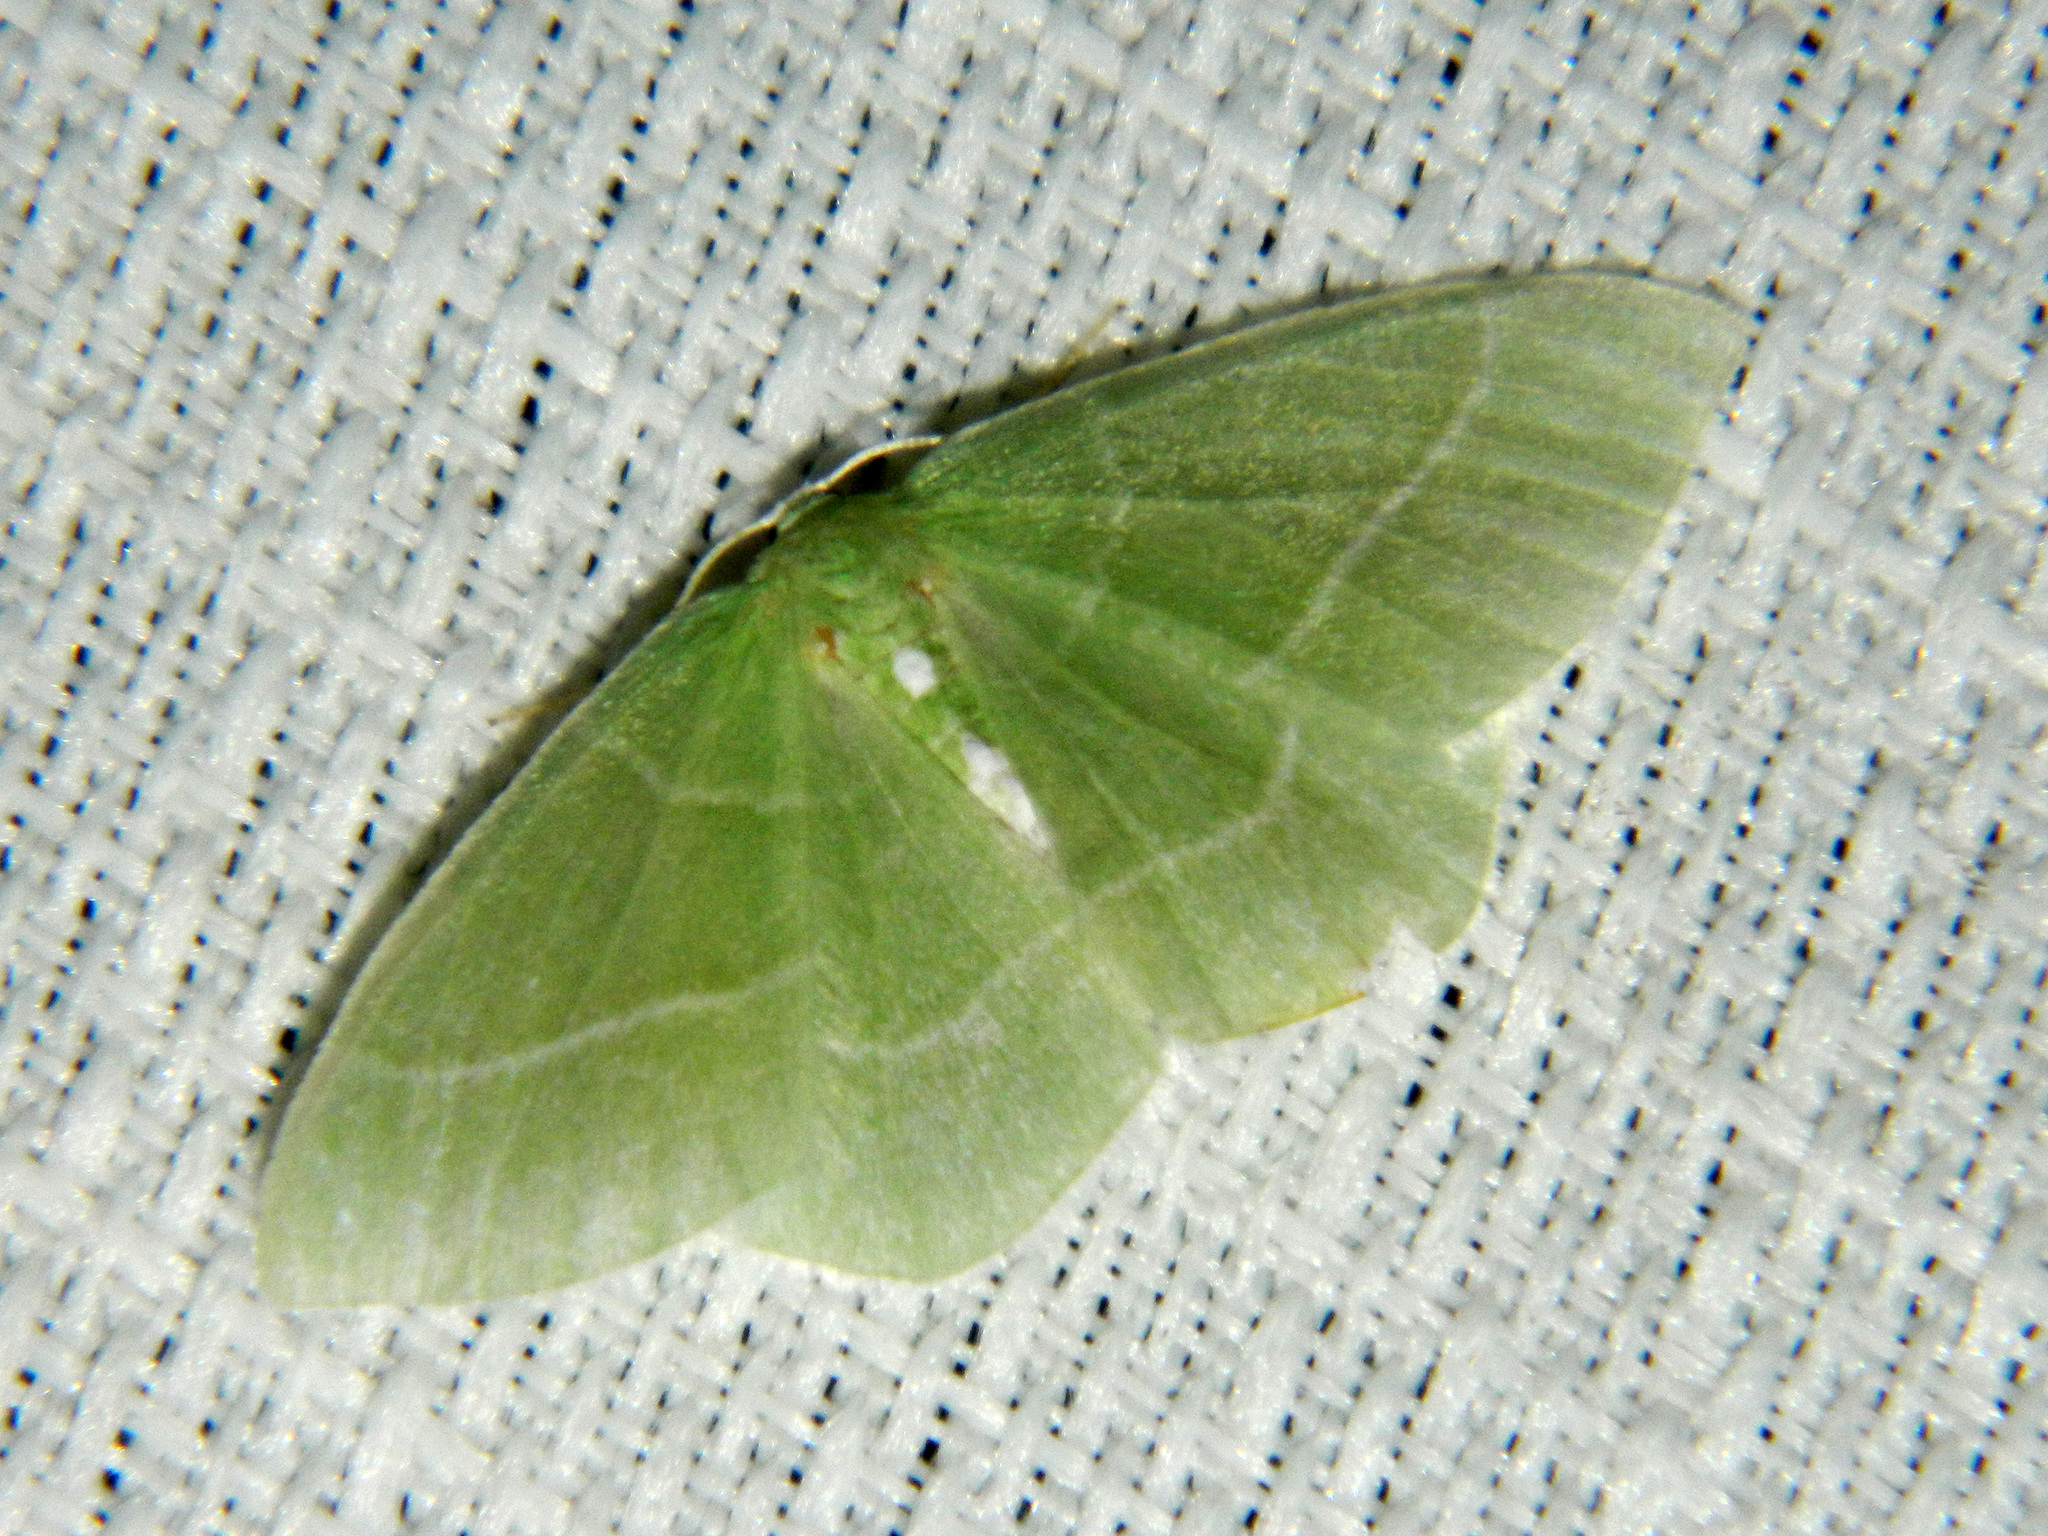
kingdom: Animalia
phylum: Arthropoda
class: Insecta
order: Lepidoptera
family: Geometridae
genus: Nemoria
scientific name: Nemoria mimosaria
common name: White-fringed emerald
